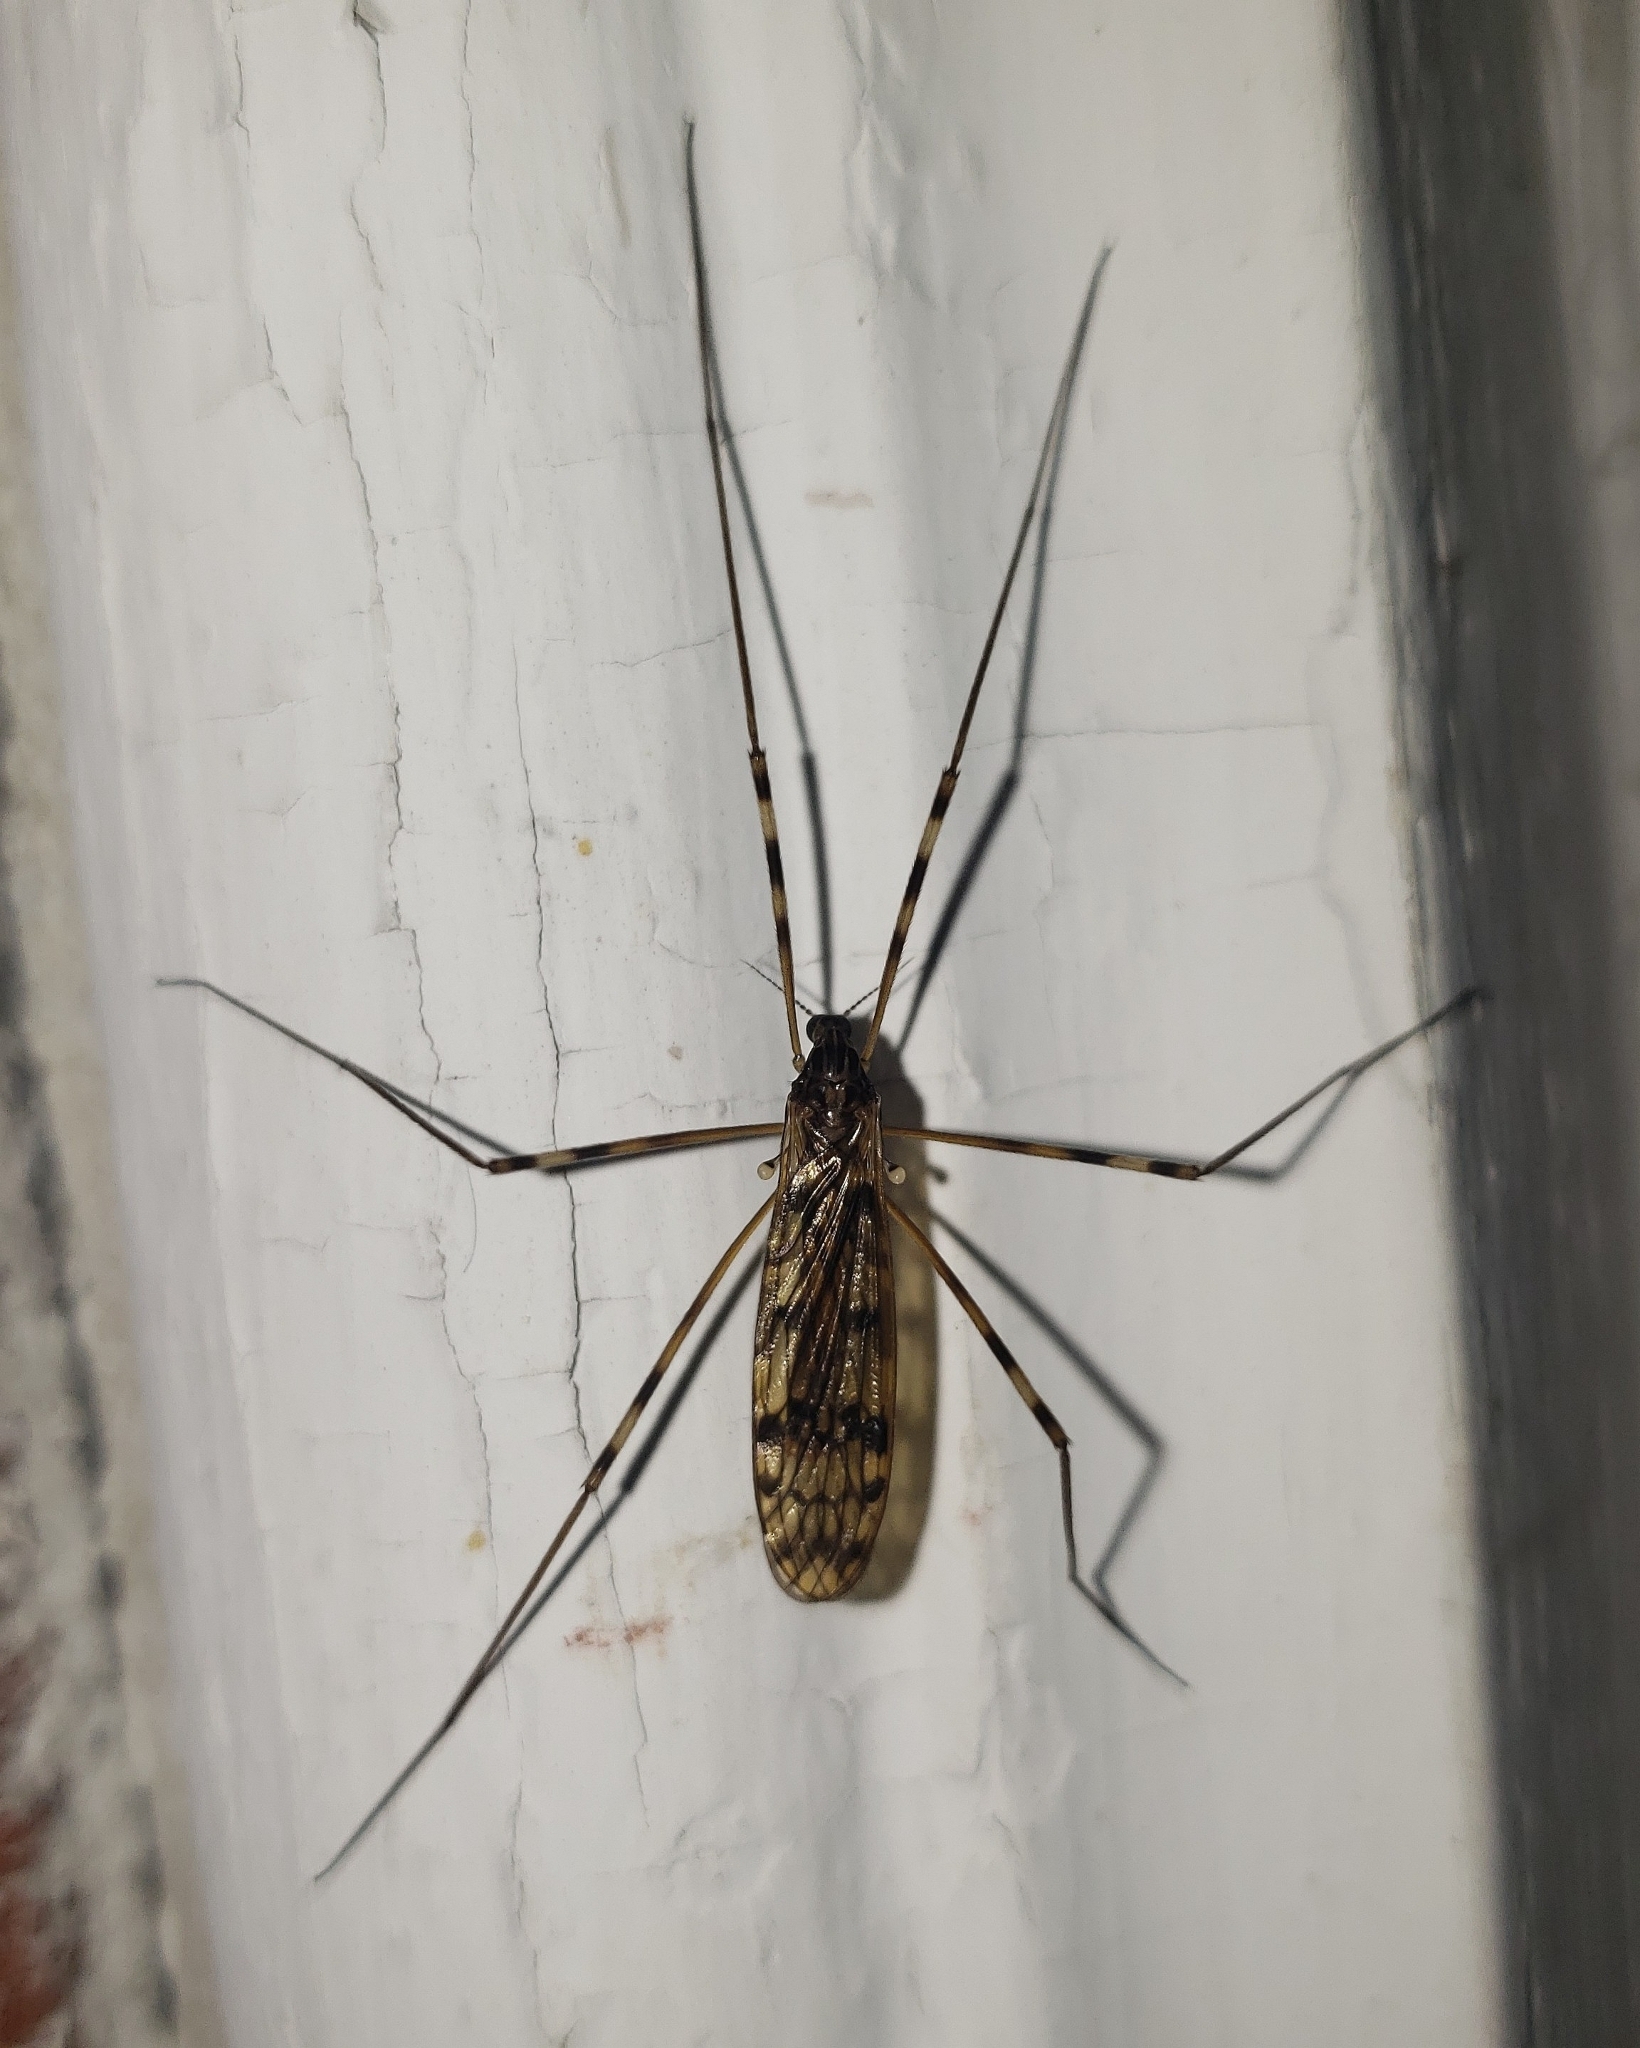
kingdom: Animalia
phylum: Arthropoda
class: Insecta
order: Diptera
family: Limoniidae
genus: Metalimnobia
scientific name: Metalimnobia immatura
